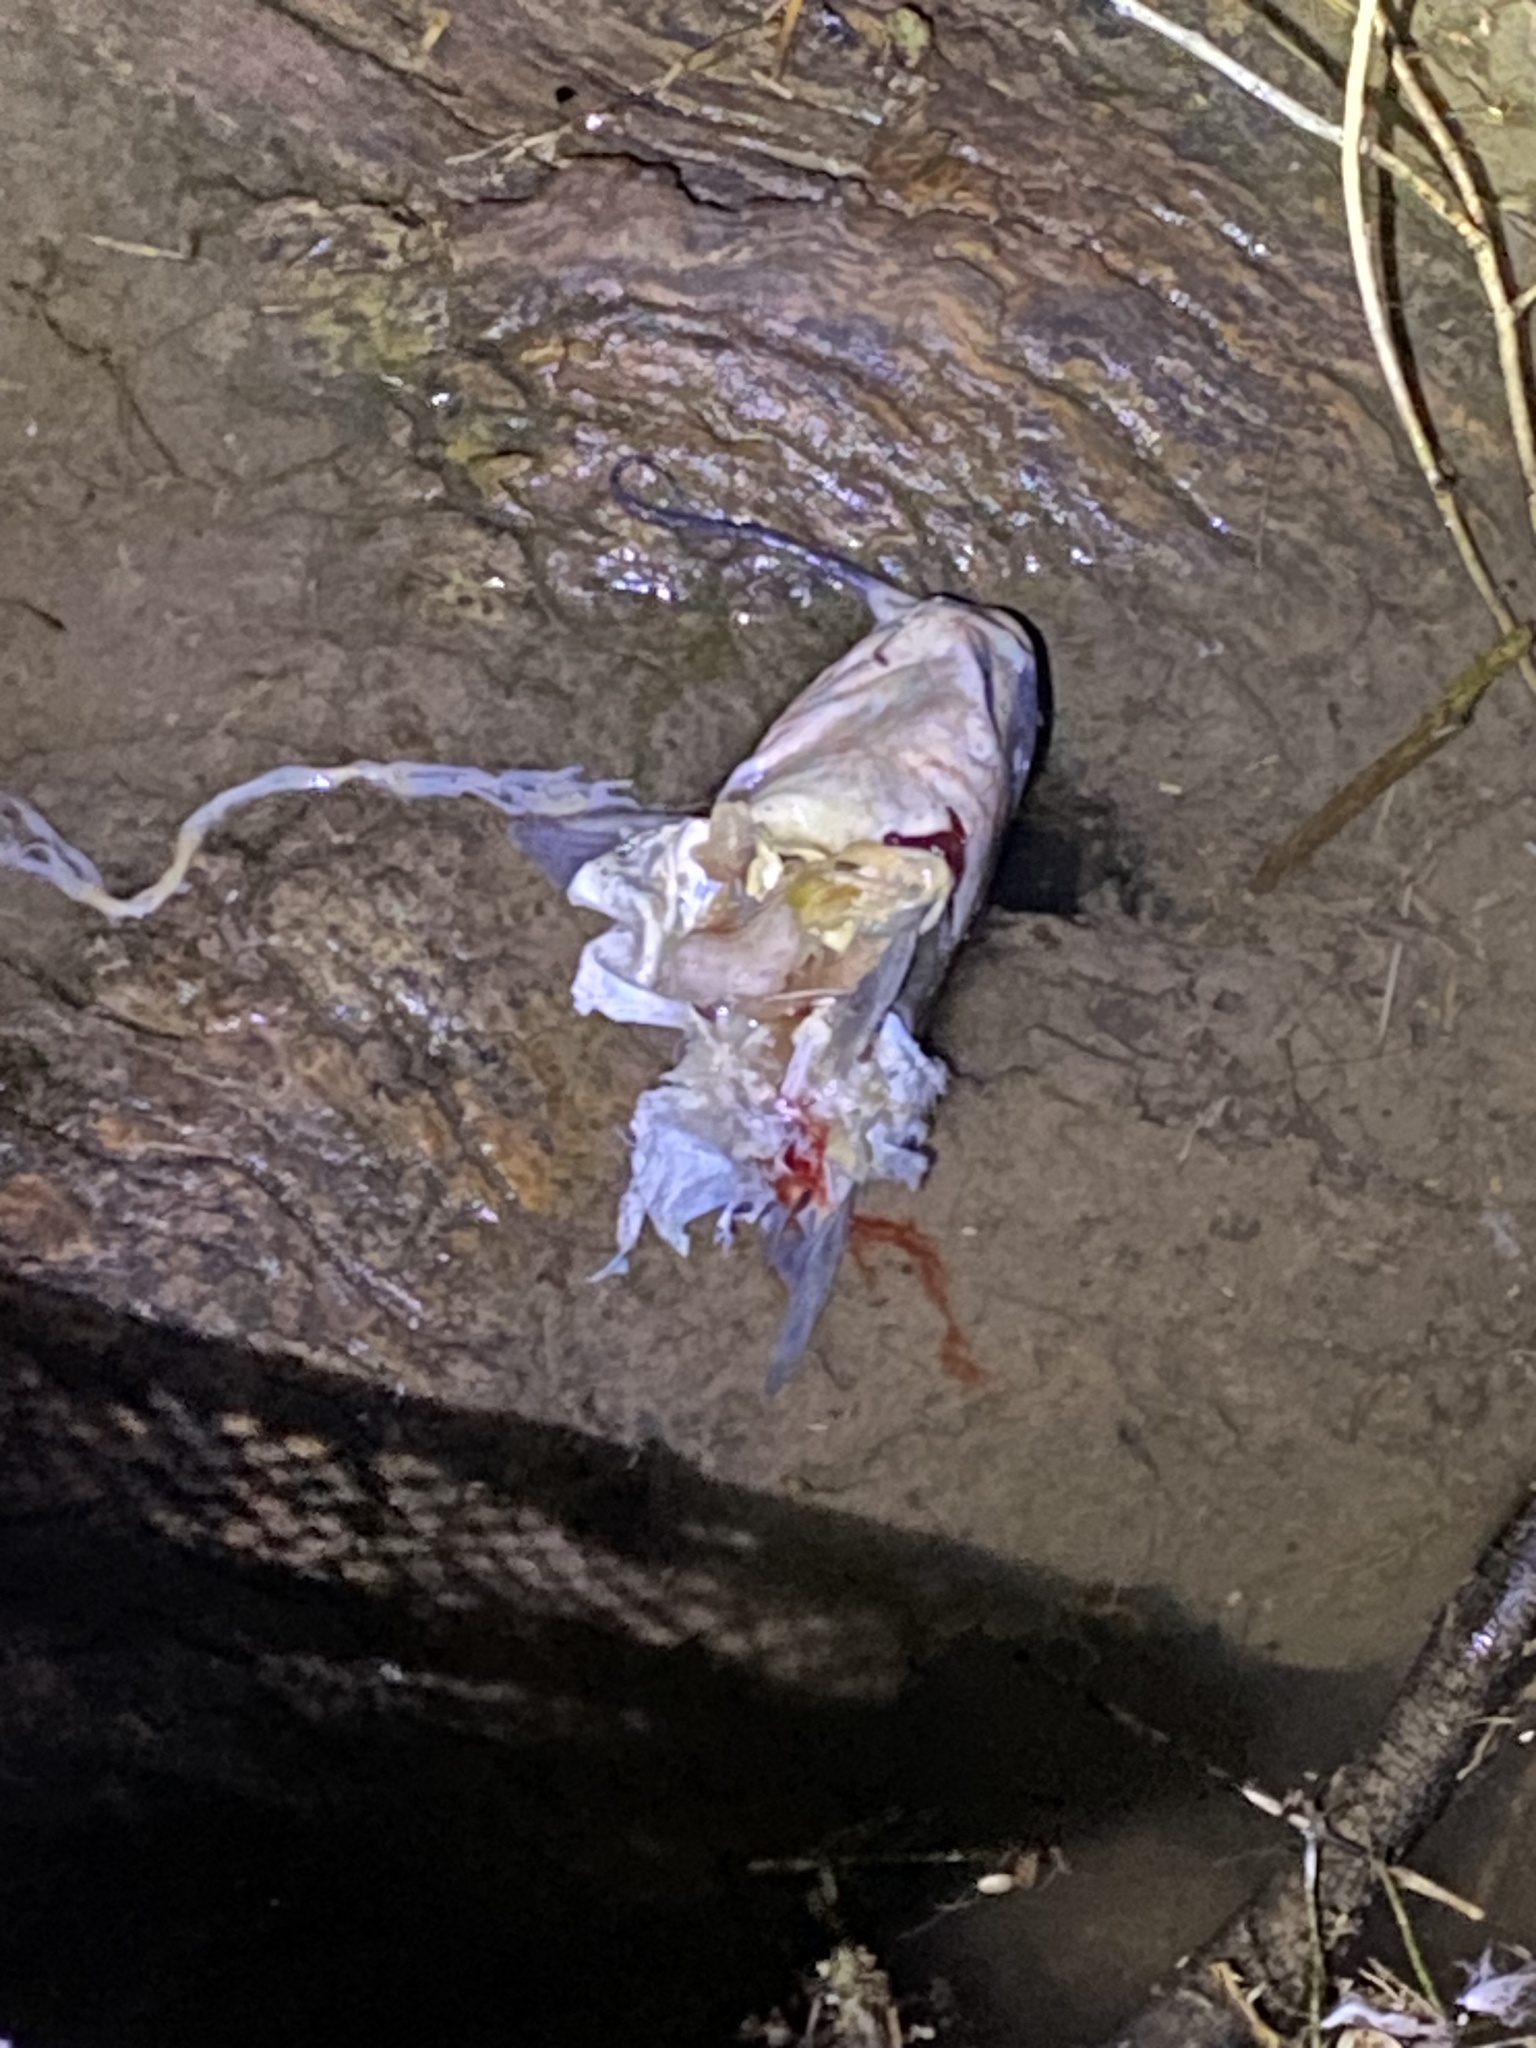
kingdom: Animalia
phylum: Chordata
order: Siluriformes
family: Ictaluridae
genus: Ictalurus
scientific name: Ictalurus punctatus
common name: Channel catfish
